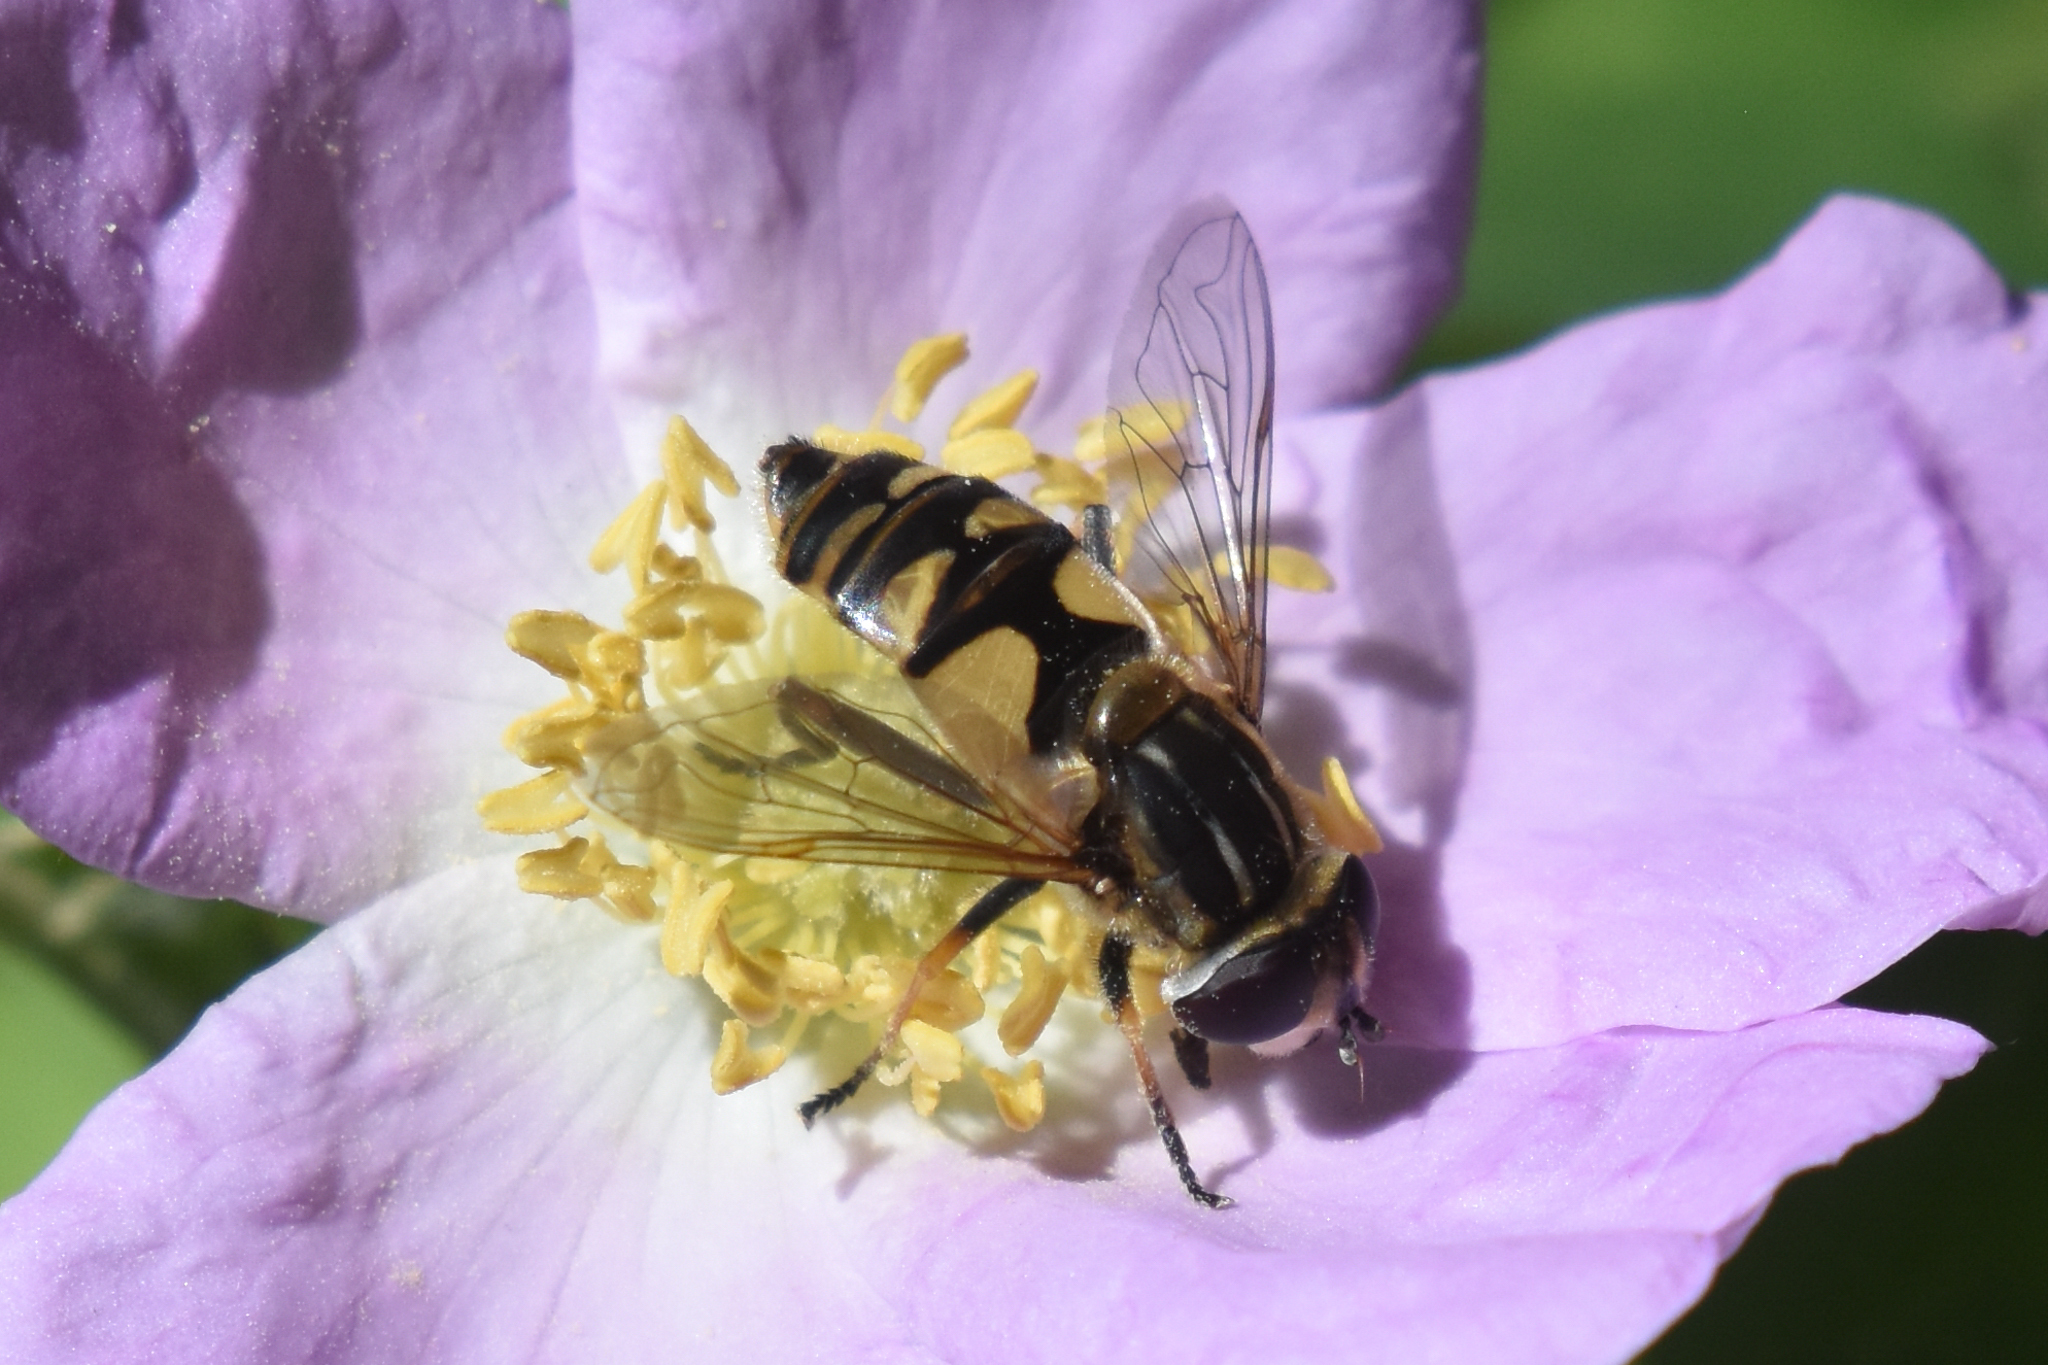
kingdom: Animalia
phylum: Arthropoda
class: Insecta
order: Diptera
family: Syrphidae
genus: Helophilus
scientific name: Helophilus hybridus
